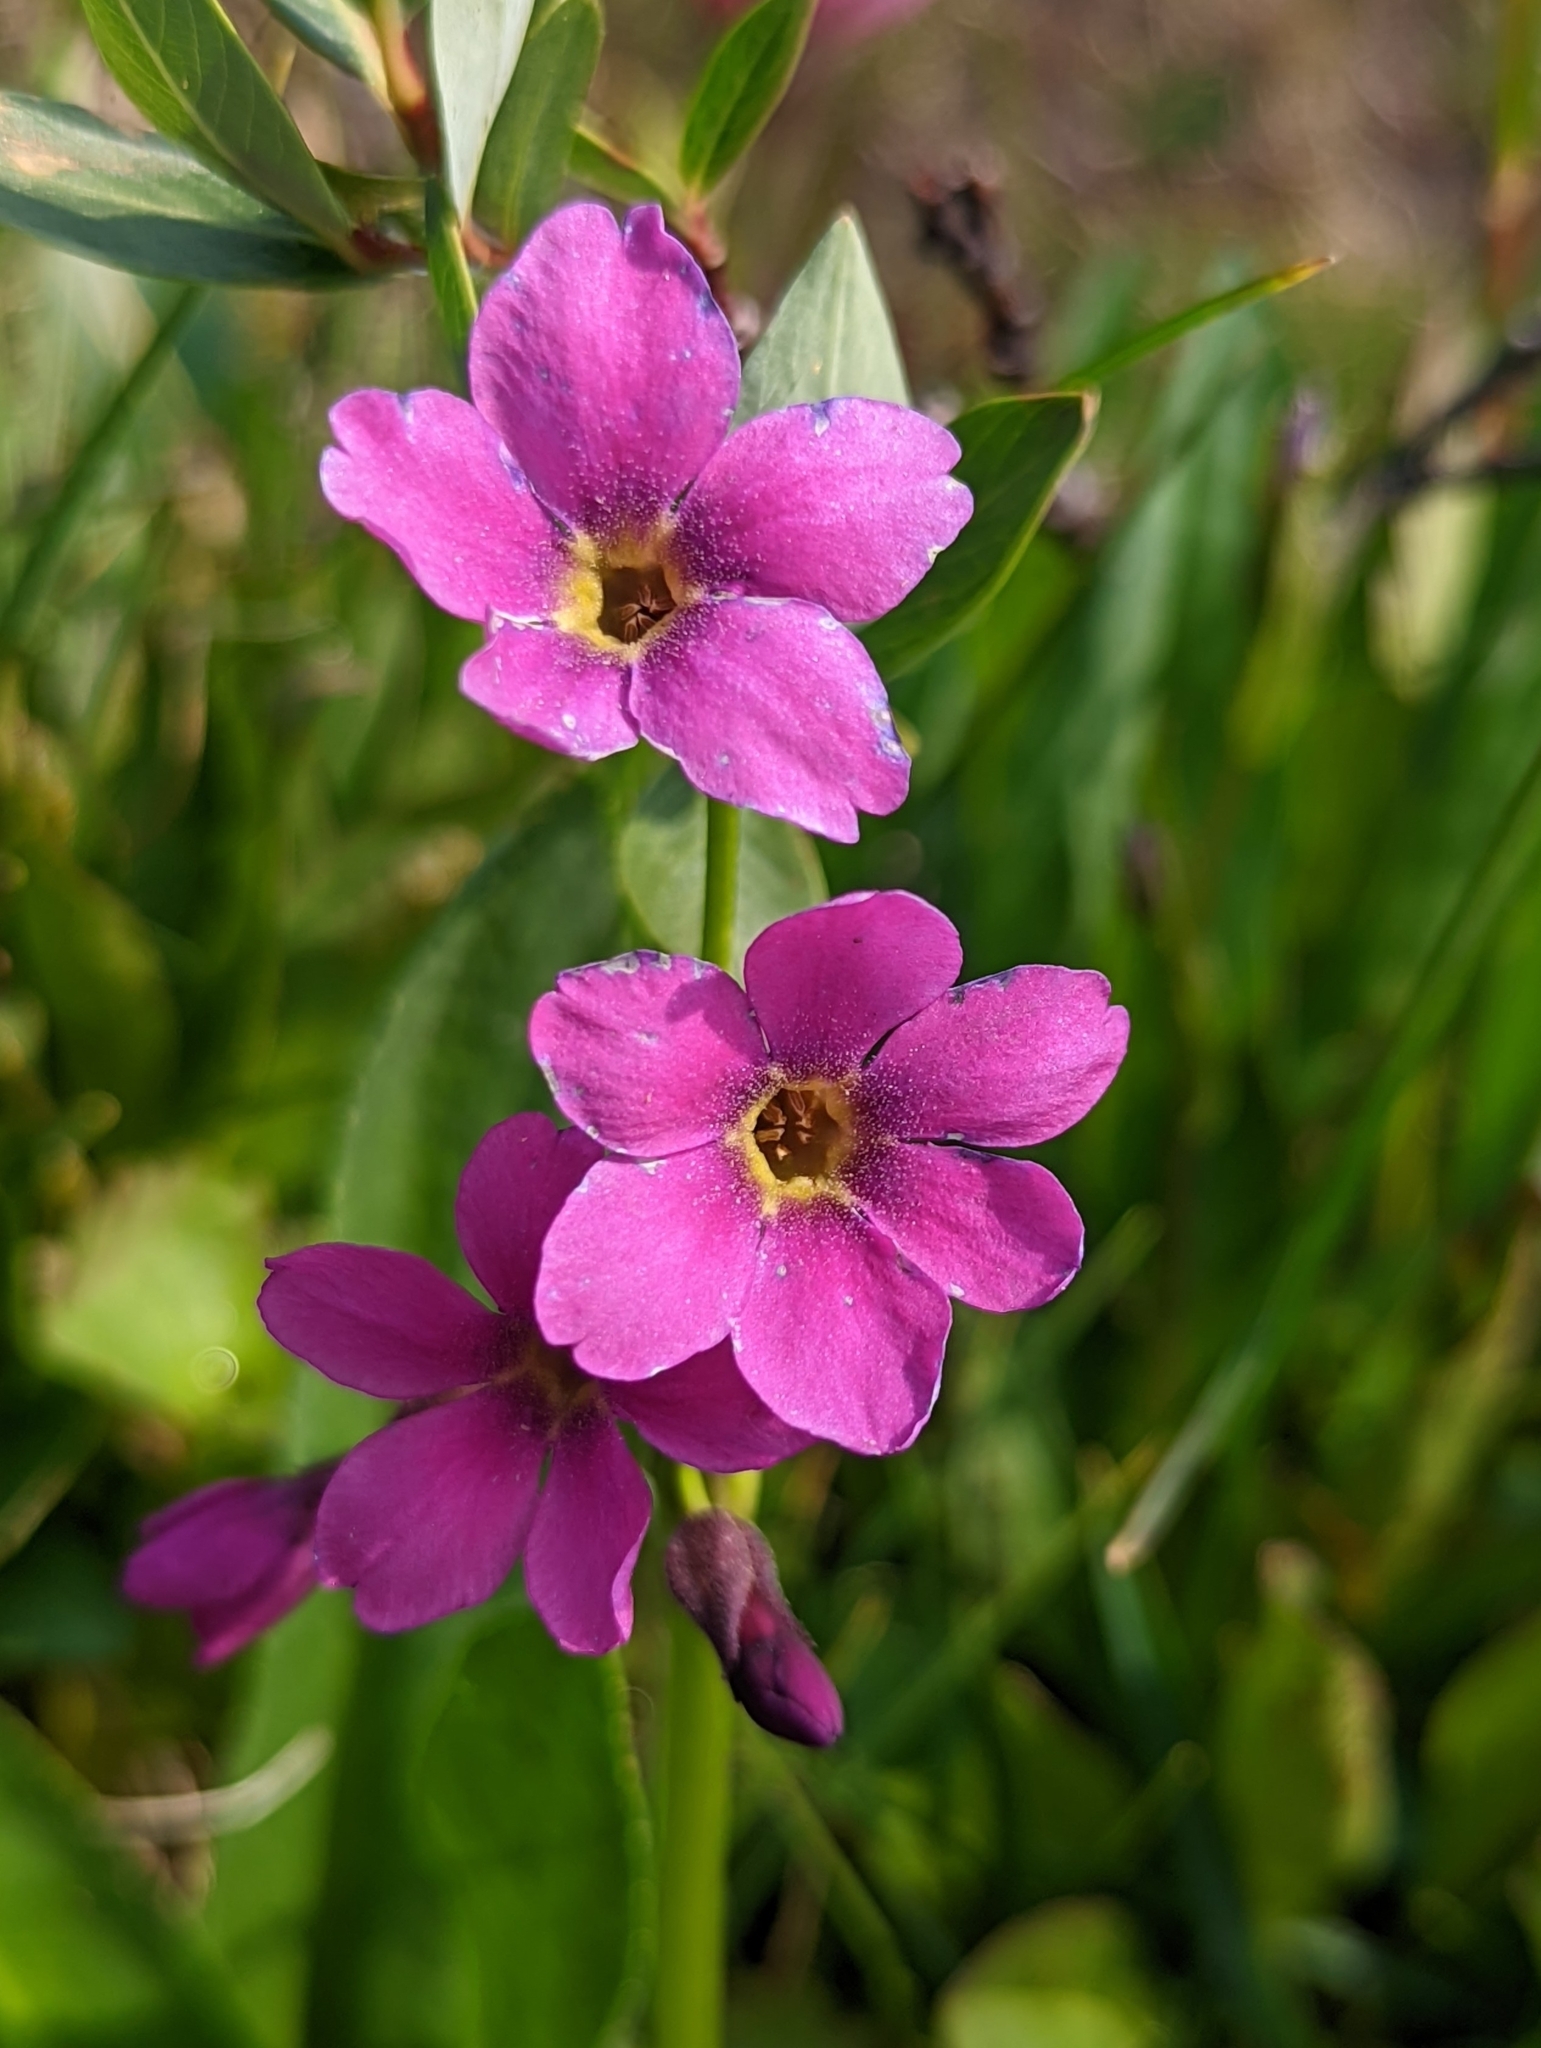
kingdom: Plantae
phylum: Tracheophyta
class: Magnoliopsida
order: Ericales
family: Primulaceae
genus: Primula
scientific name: Primula parryi
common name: Parry's primrose
